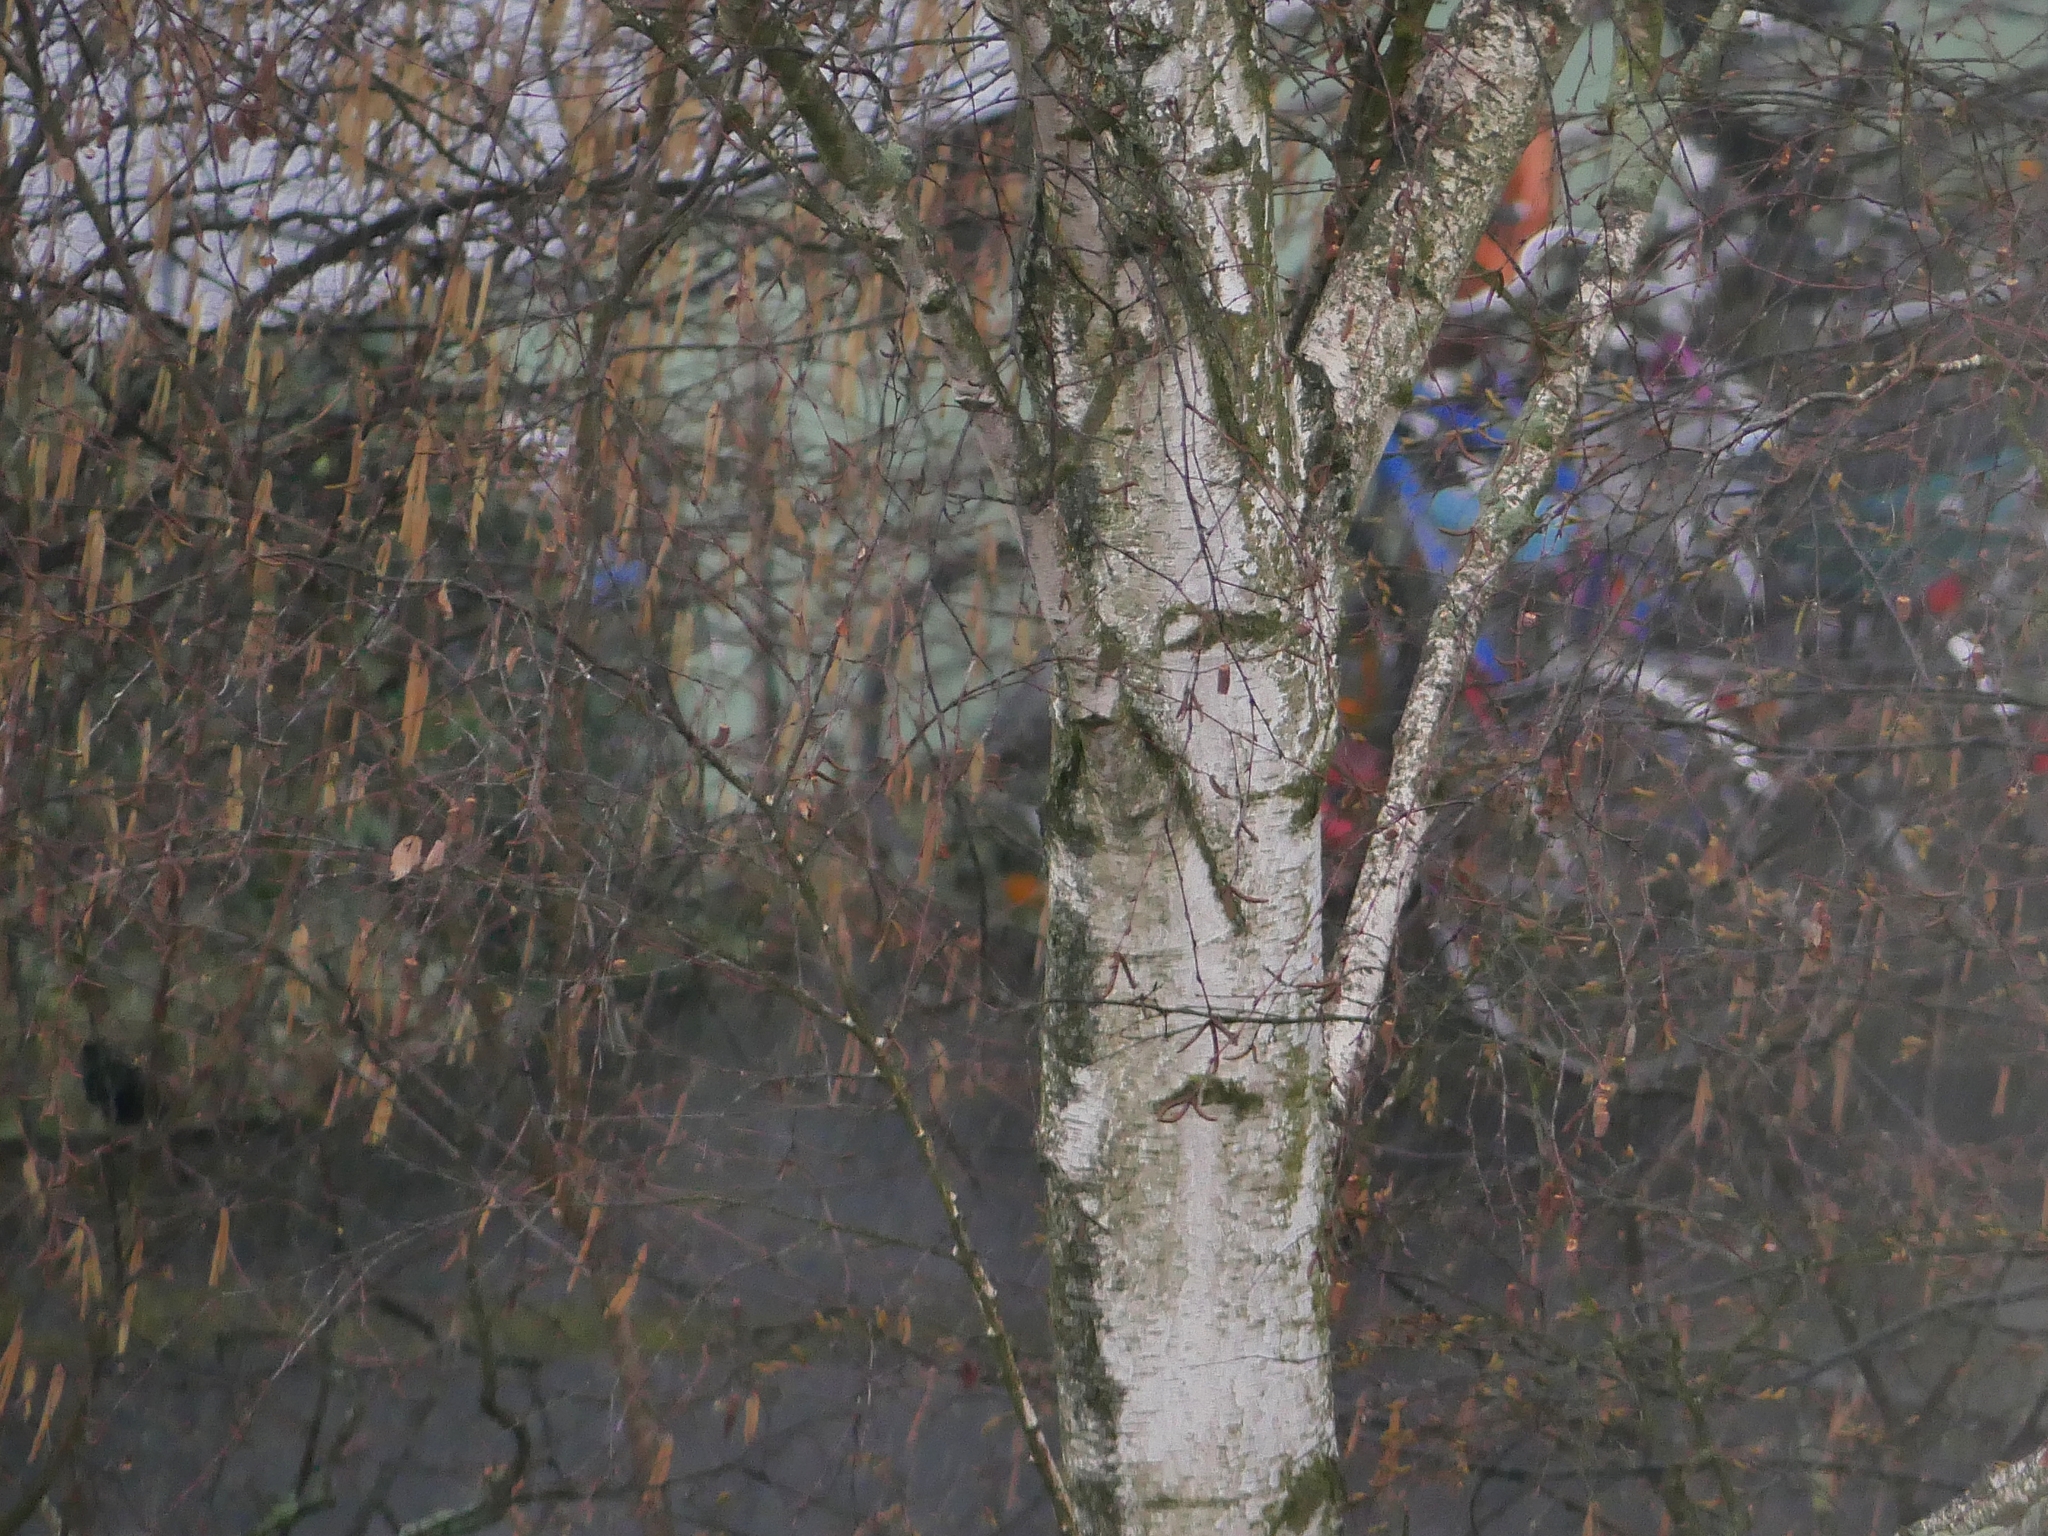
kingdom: Plantae
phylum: Tracheophyta
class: Magnoliopsida
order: Fagales
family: Betulaceae
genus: Betula
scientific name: Betula pendula
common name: Silver birch
